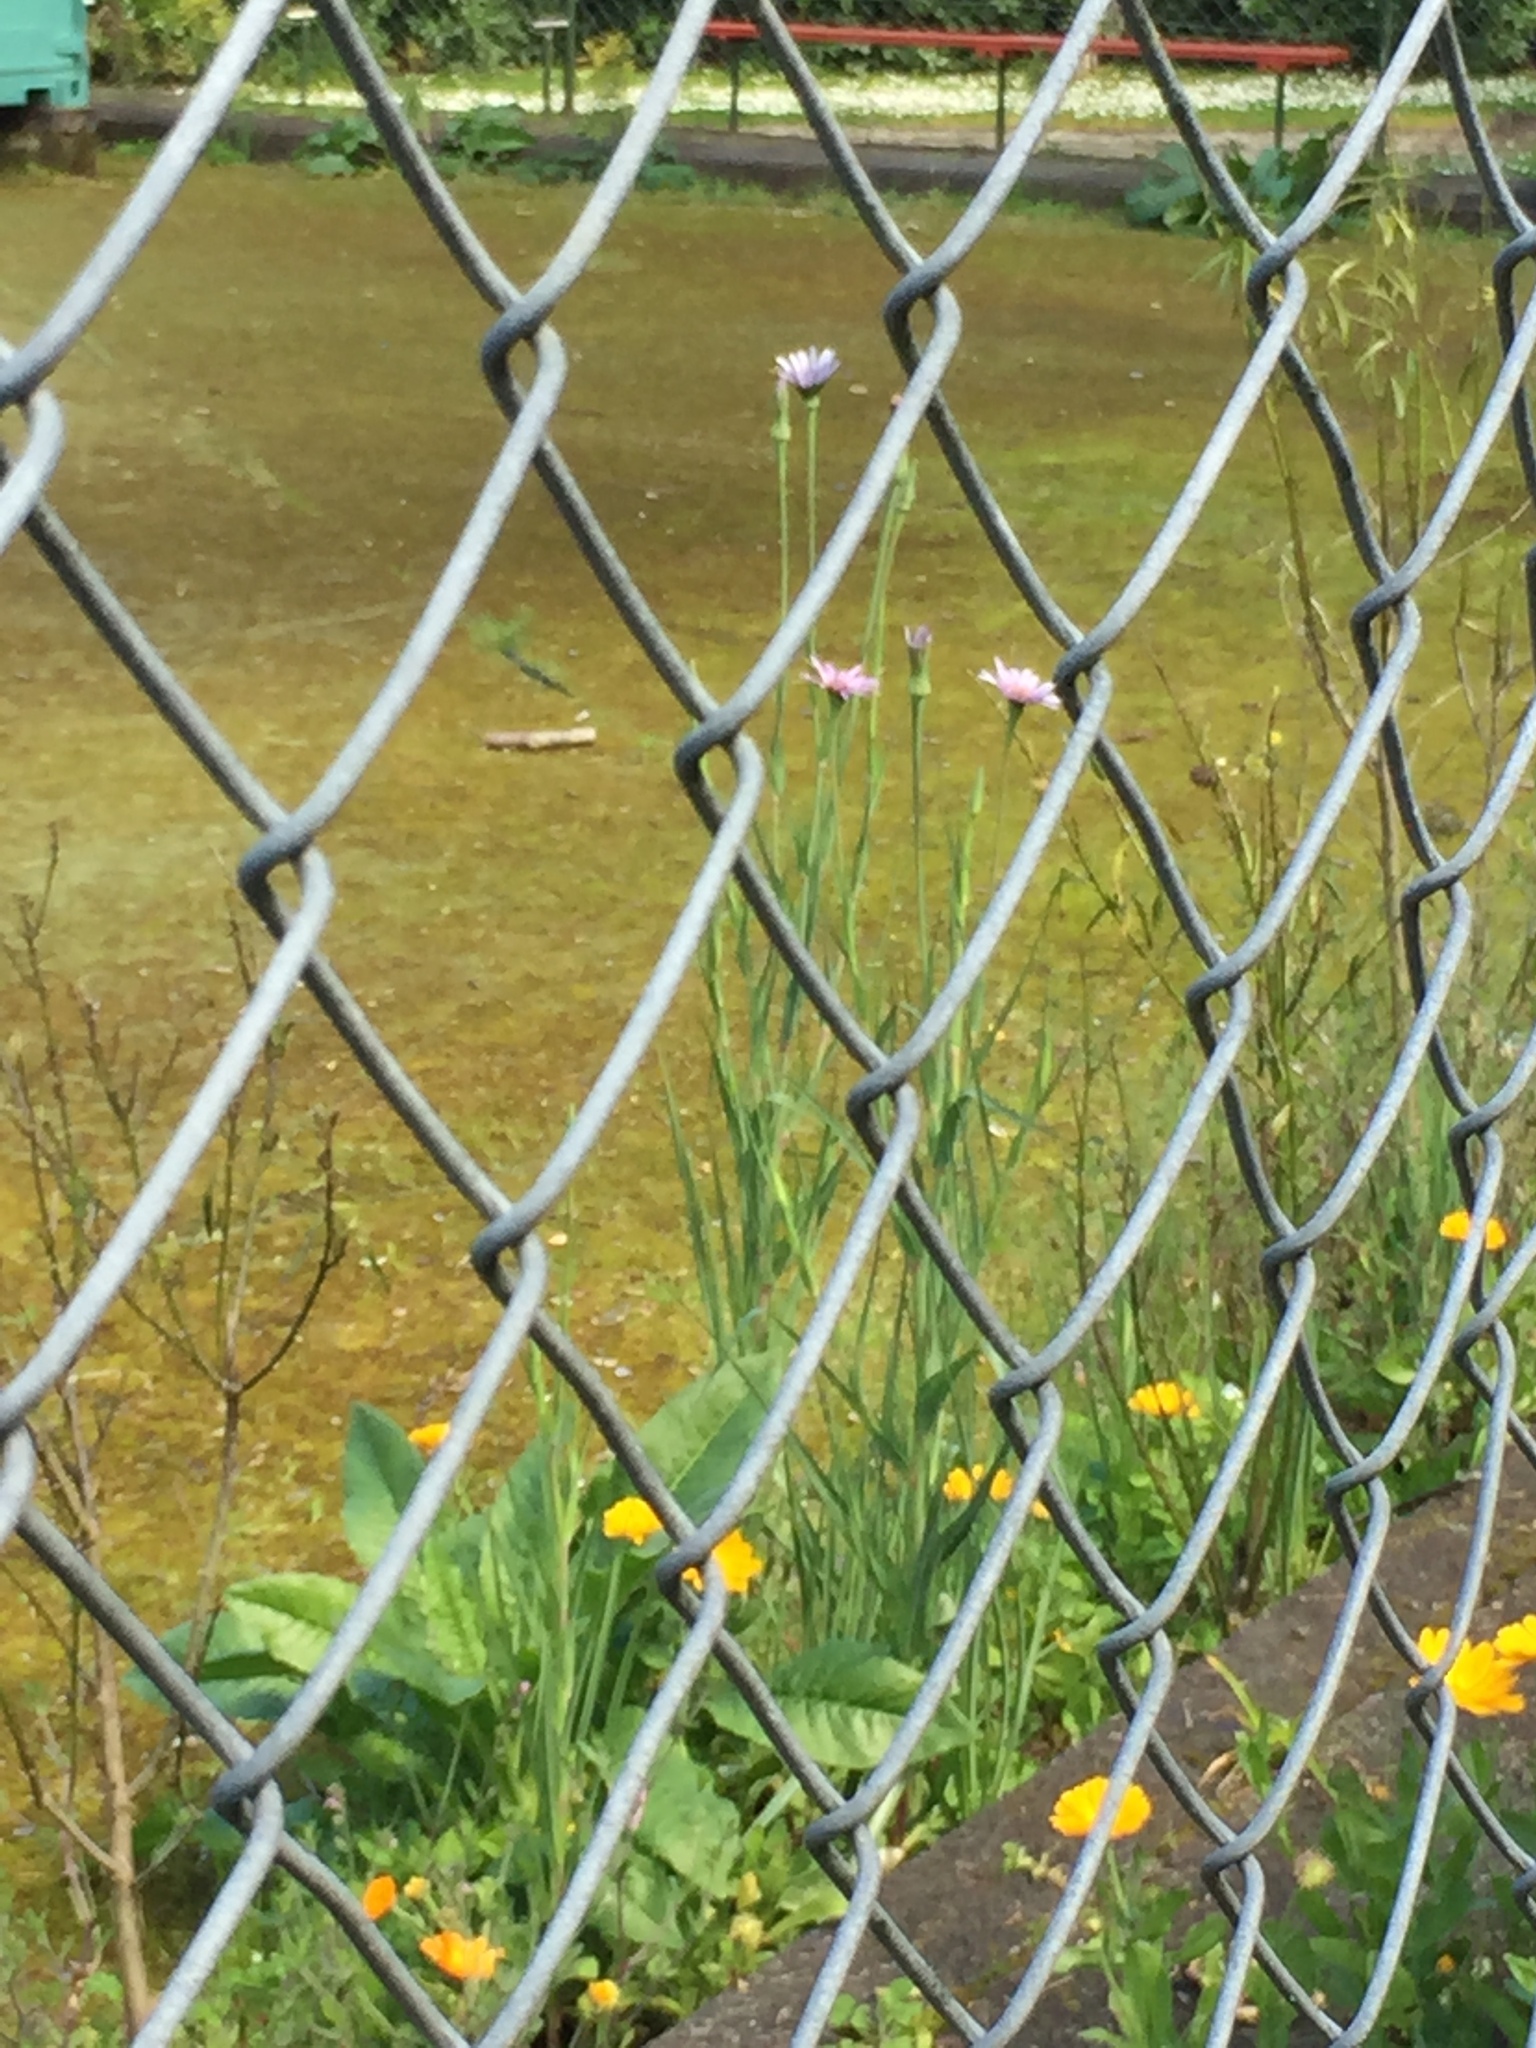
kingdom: Plantae
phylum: Tracheophyta
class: Magnoliopsida
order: Asterales
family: Asteraceae
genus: Tragopogon
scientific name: Tragopogon porrifolius
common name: Salsify
